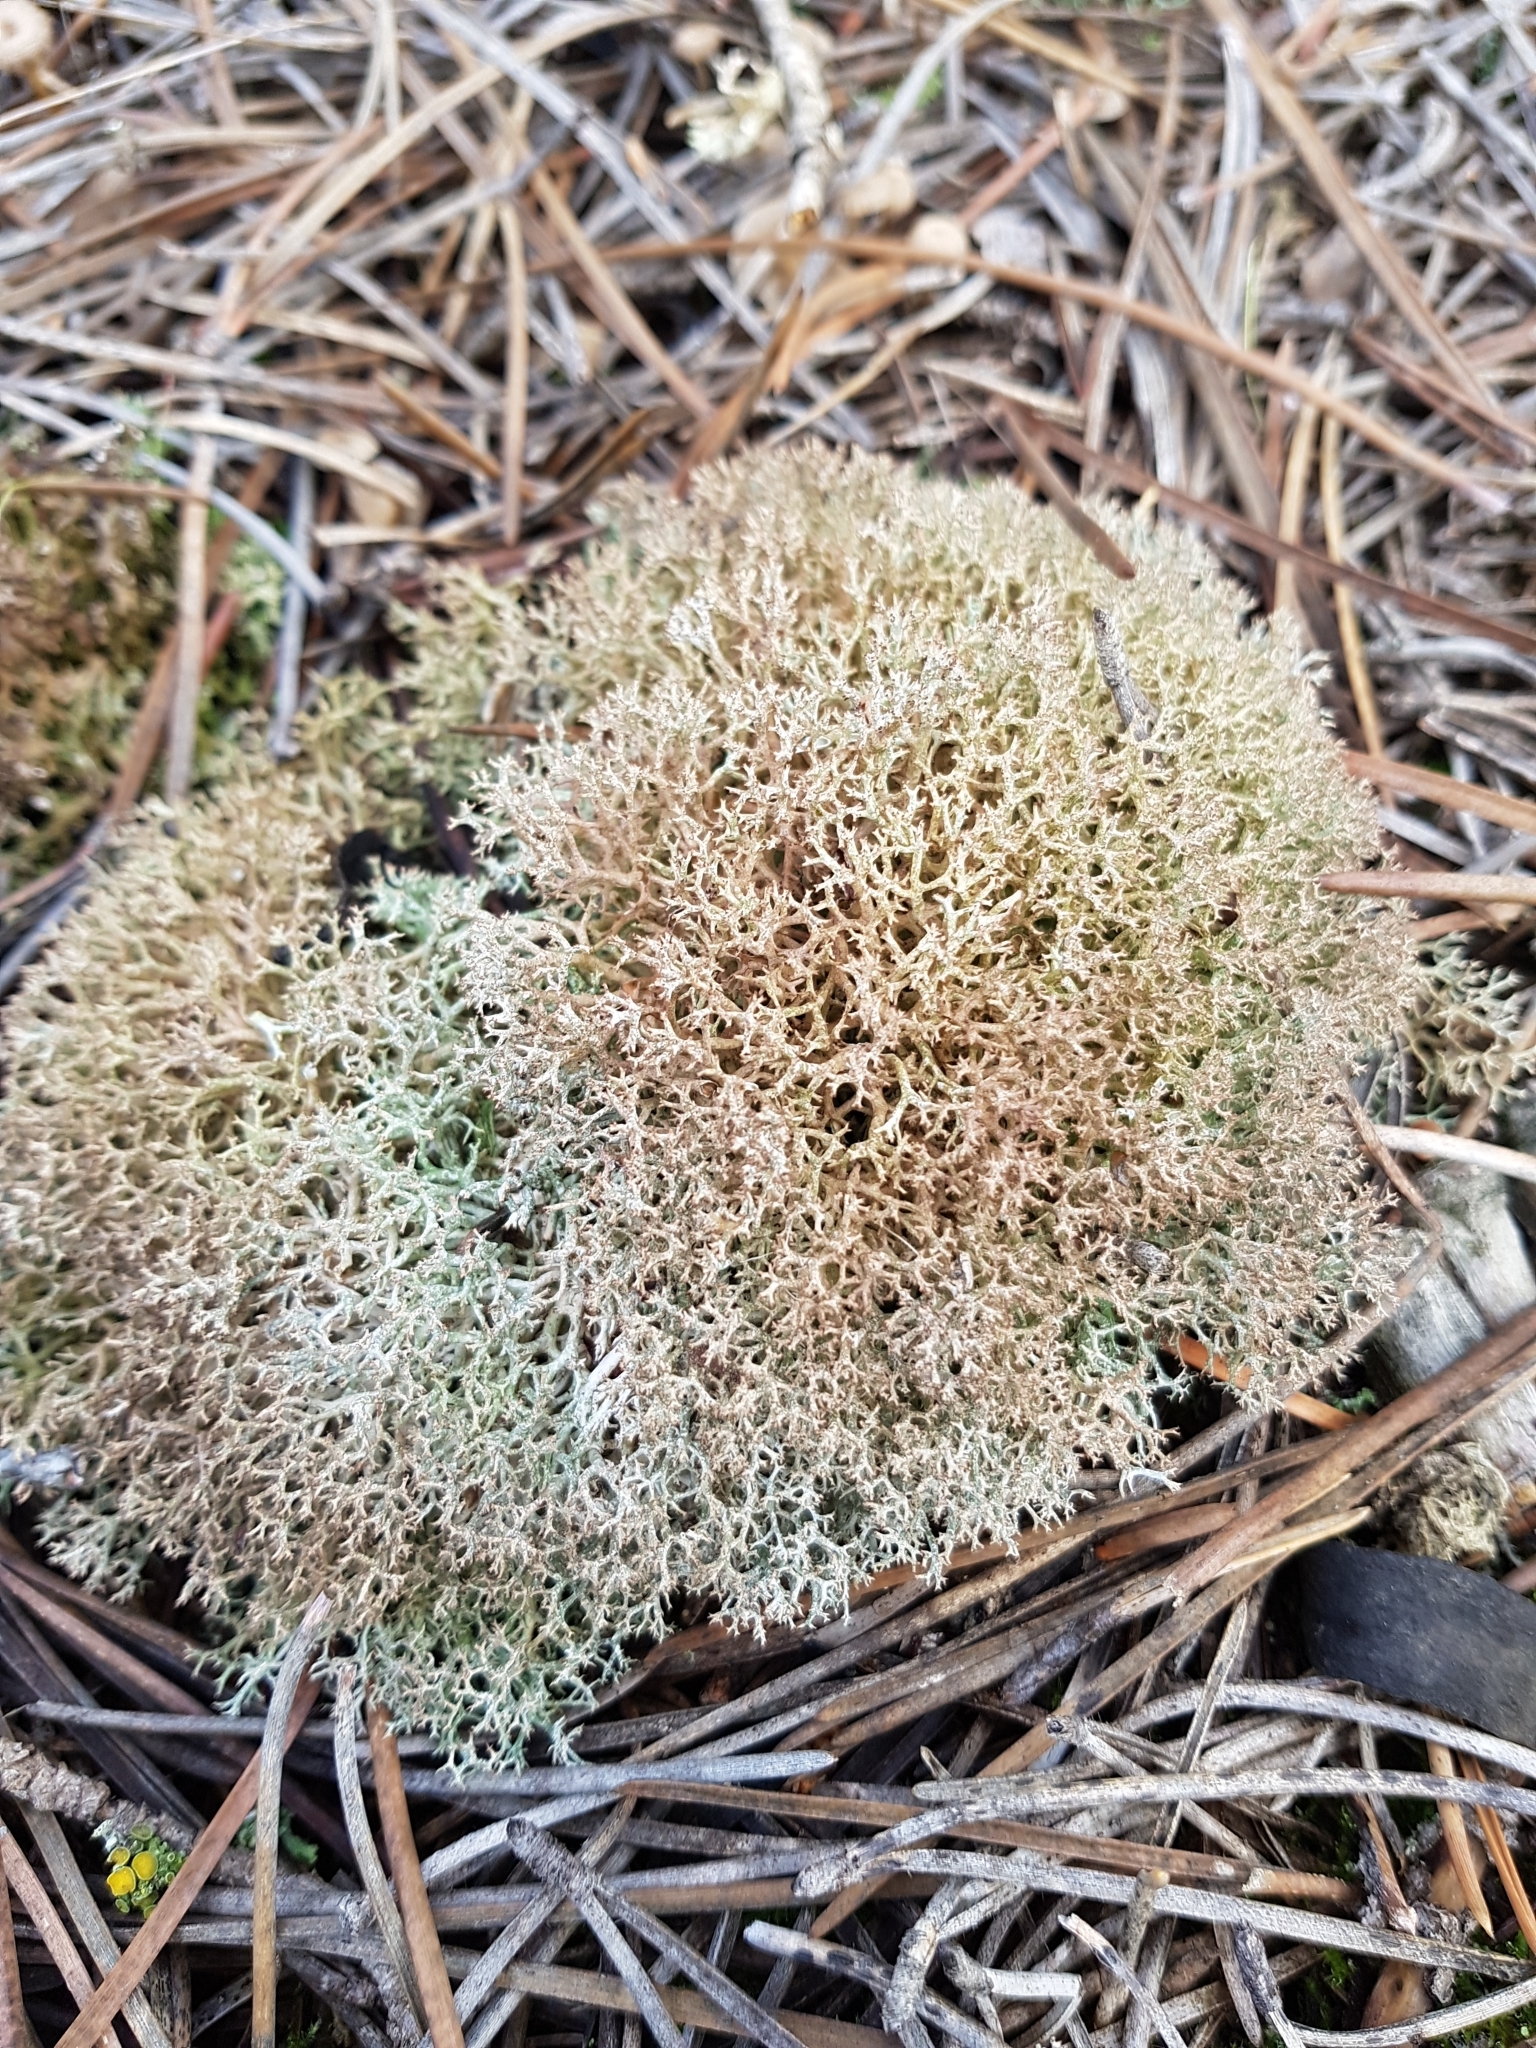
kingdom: Fungi
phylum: Ascomycota
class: Lecanoromycetes
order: Lecanorales
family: Cladoniaceae
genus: Cladonia
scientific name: Cladonia rangiformis
